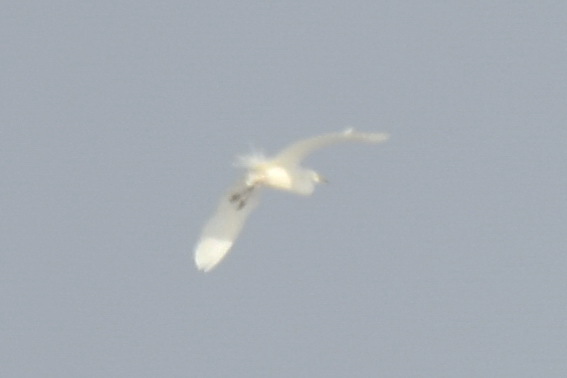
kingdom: Animalia
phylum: Chordata
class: Aves
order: Pelecaniformes
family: Ardeidae
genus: Ardea
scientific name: Ardea alba
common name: Great egret
